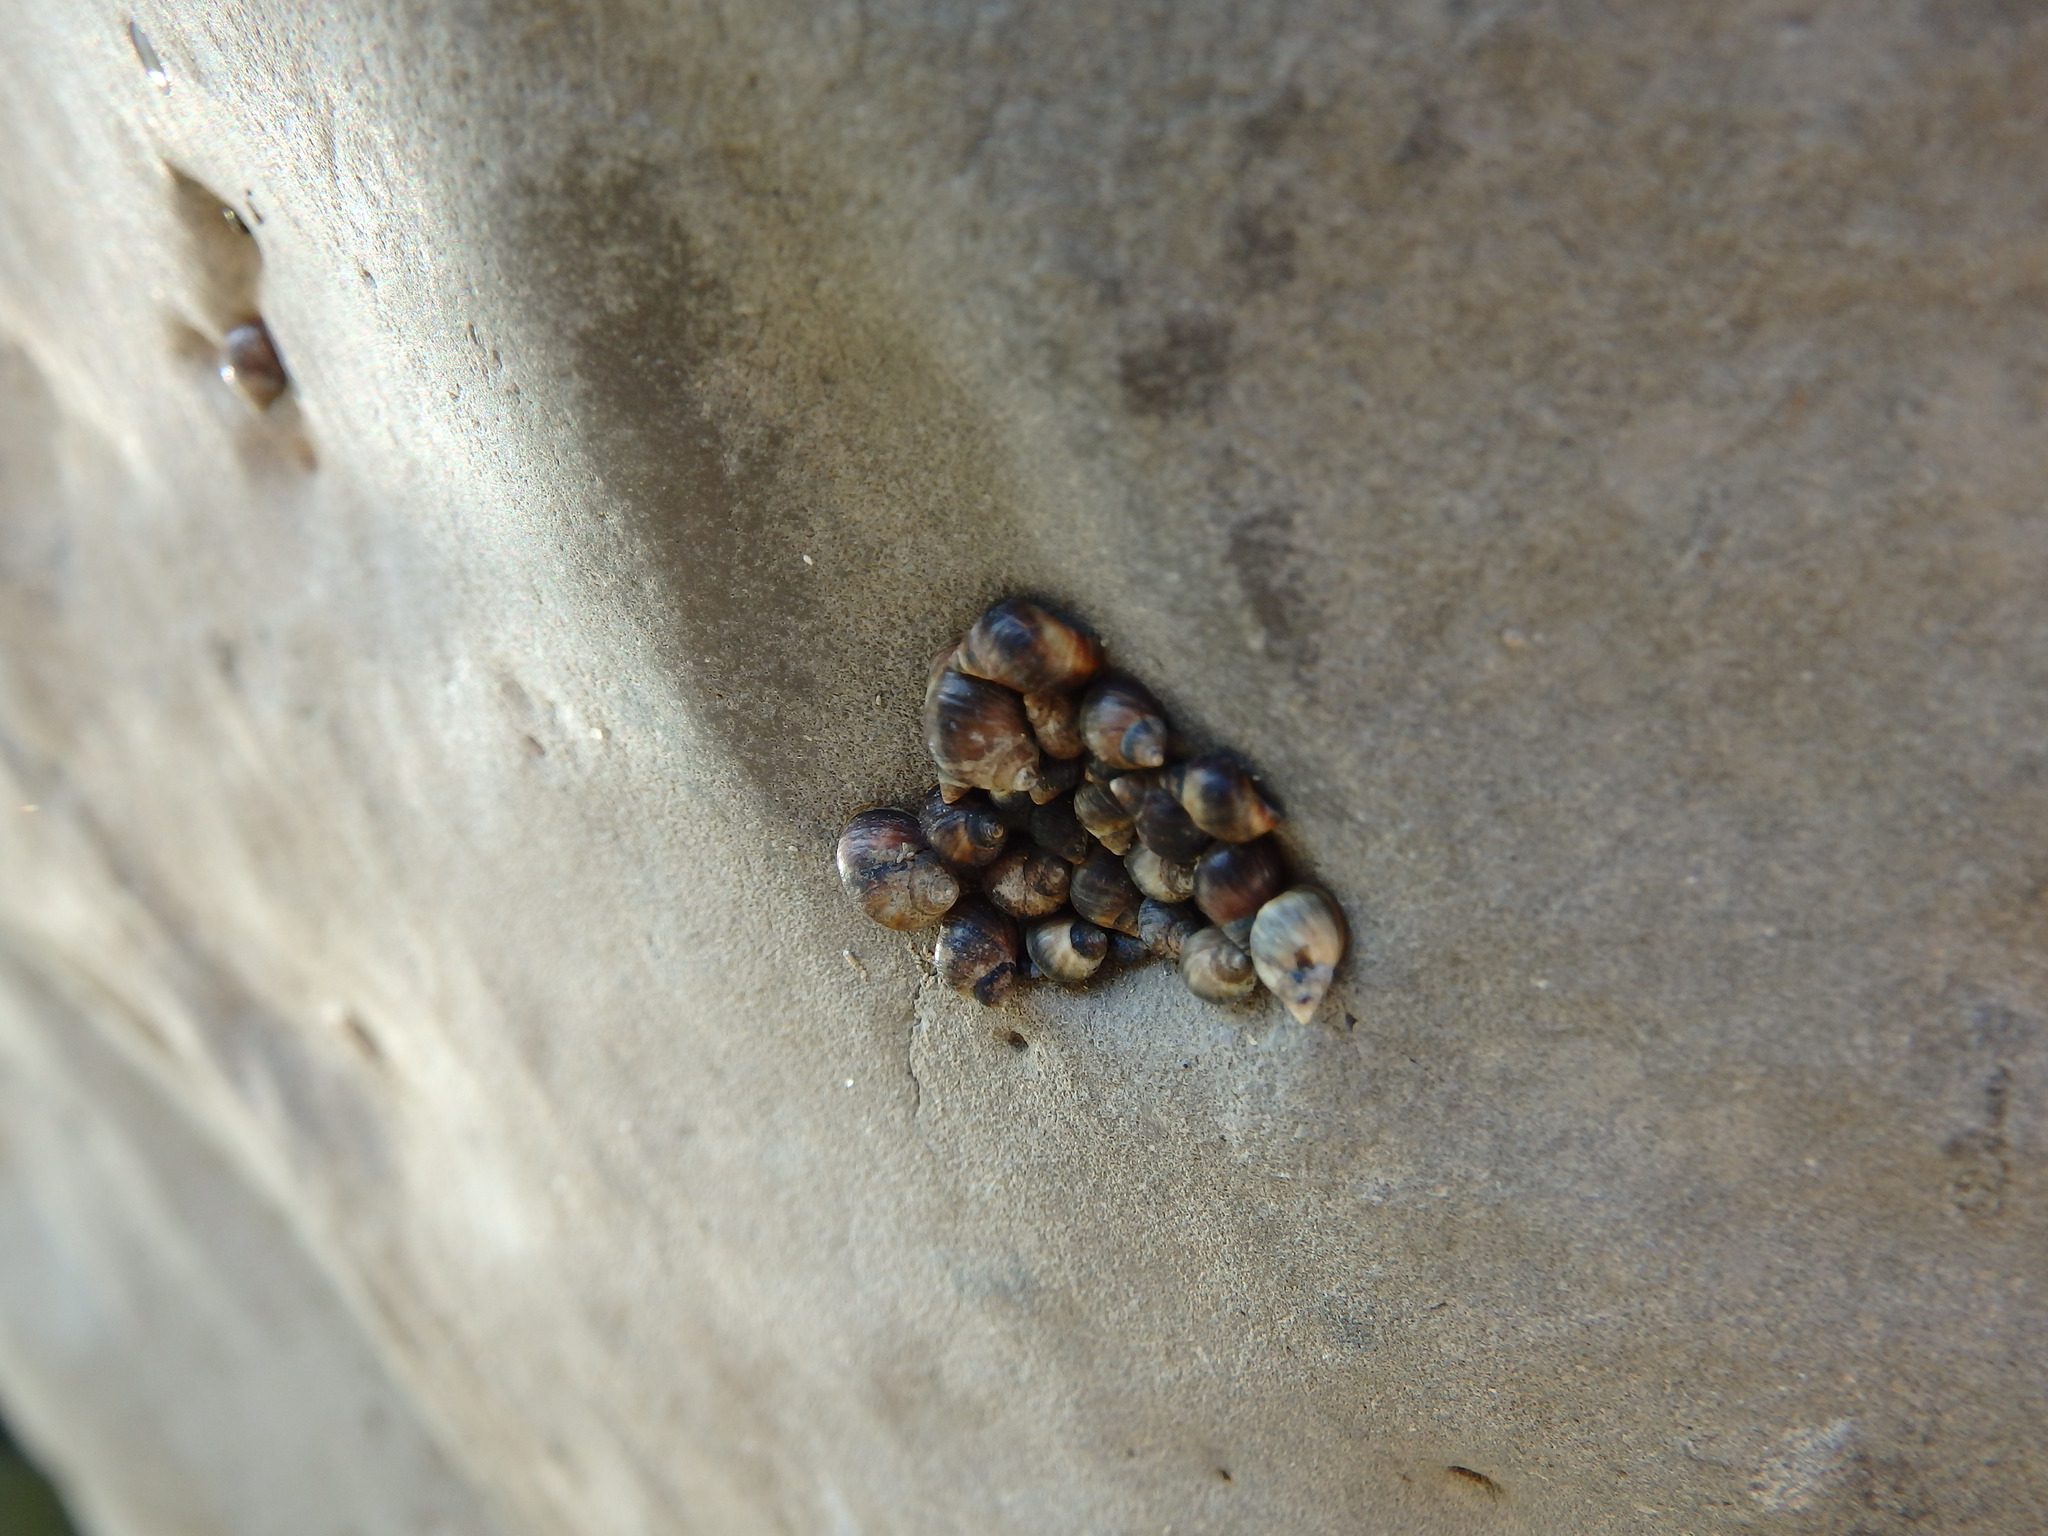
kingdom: Animalia
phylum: Mollusca
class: Gastropoda
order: Littorinimorpha
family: Littorinidae
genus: Melarhaphe
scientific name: Melarhaphe neritoides
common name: Small periwinkle
